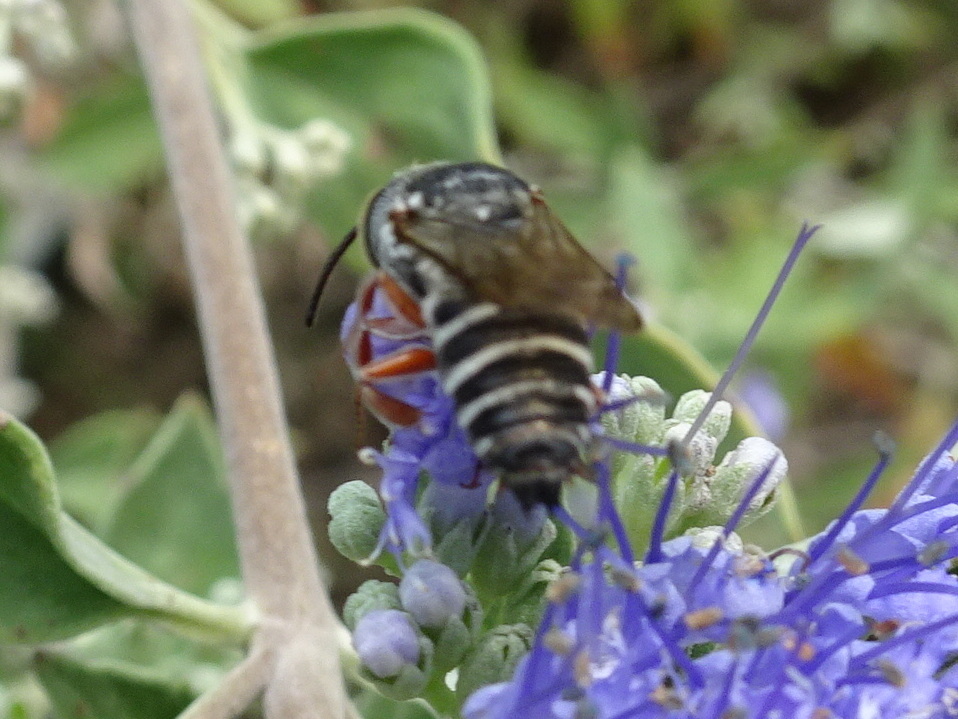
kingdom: Animalia
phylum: Arthropoda
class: Insecta
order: Hymenoptera
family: Megachilidae
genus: Coelioxys
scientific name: Coelioxys
